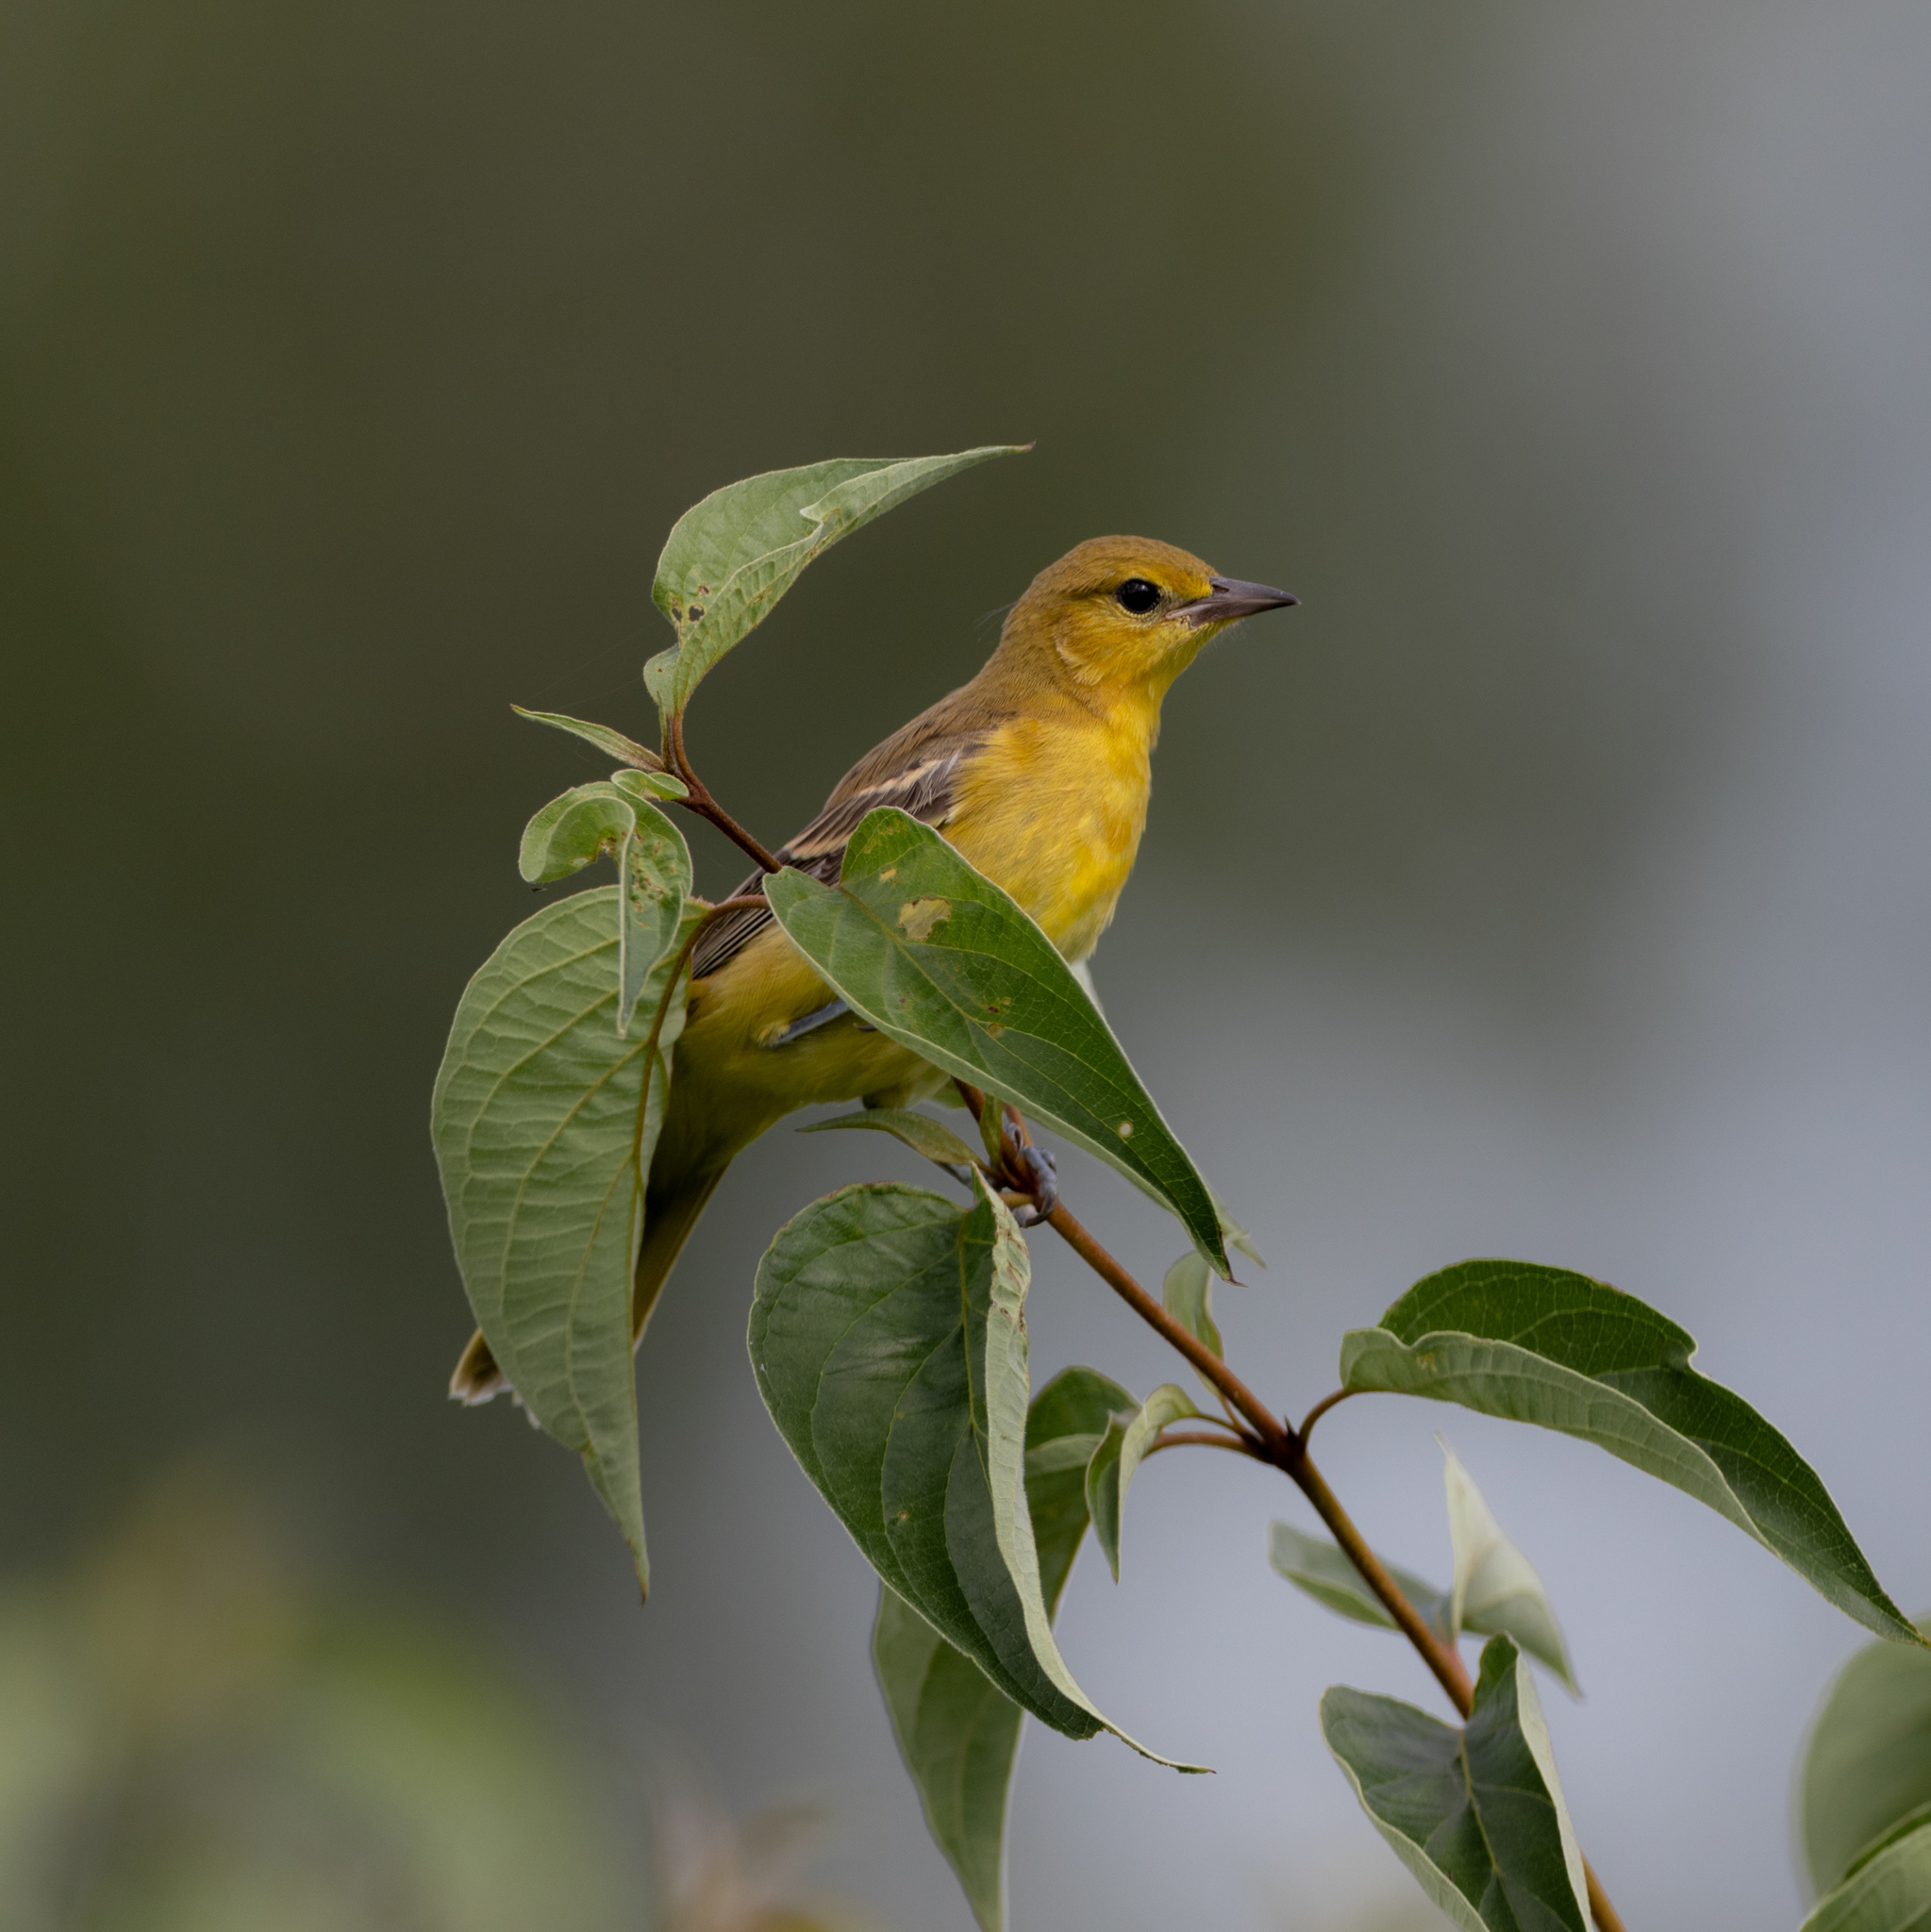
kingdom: Animalia
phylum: Chordata
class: Aves
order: Passeriformes
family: Icteridae
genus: Icterus
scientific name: Icterus spurius
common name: Orchard oriole
